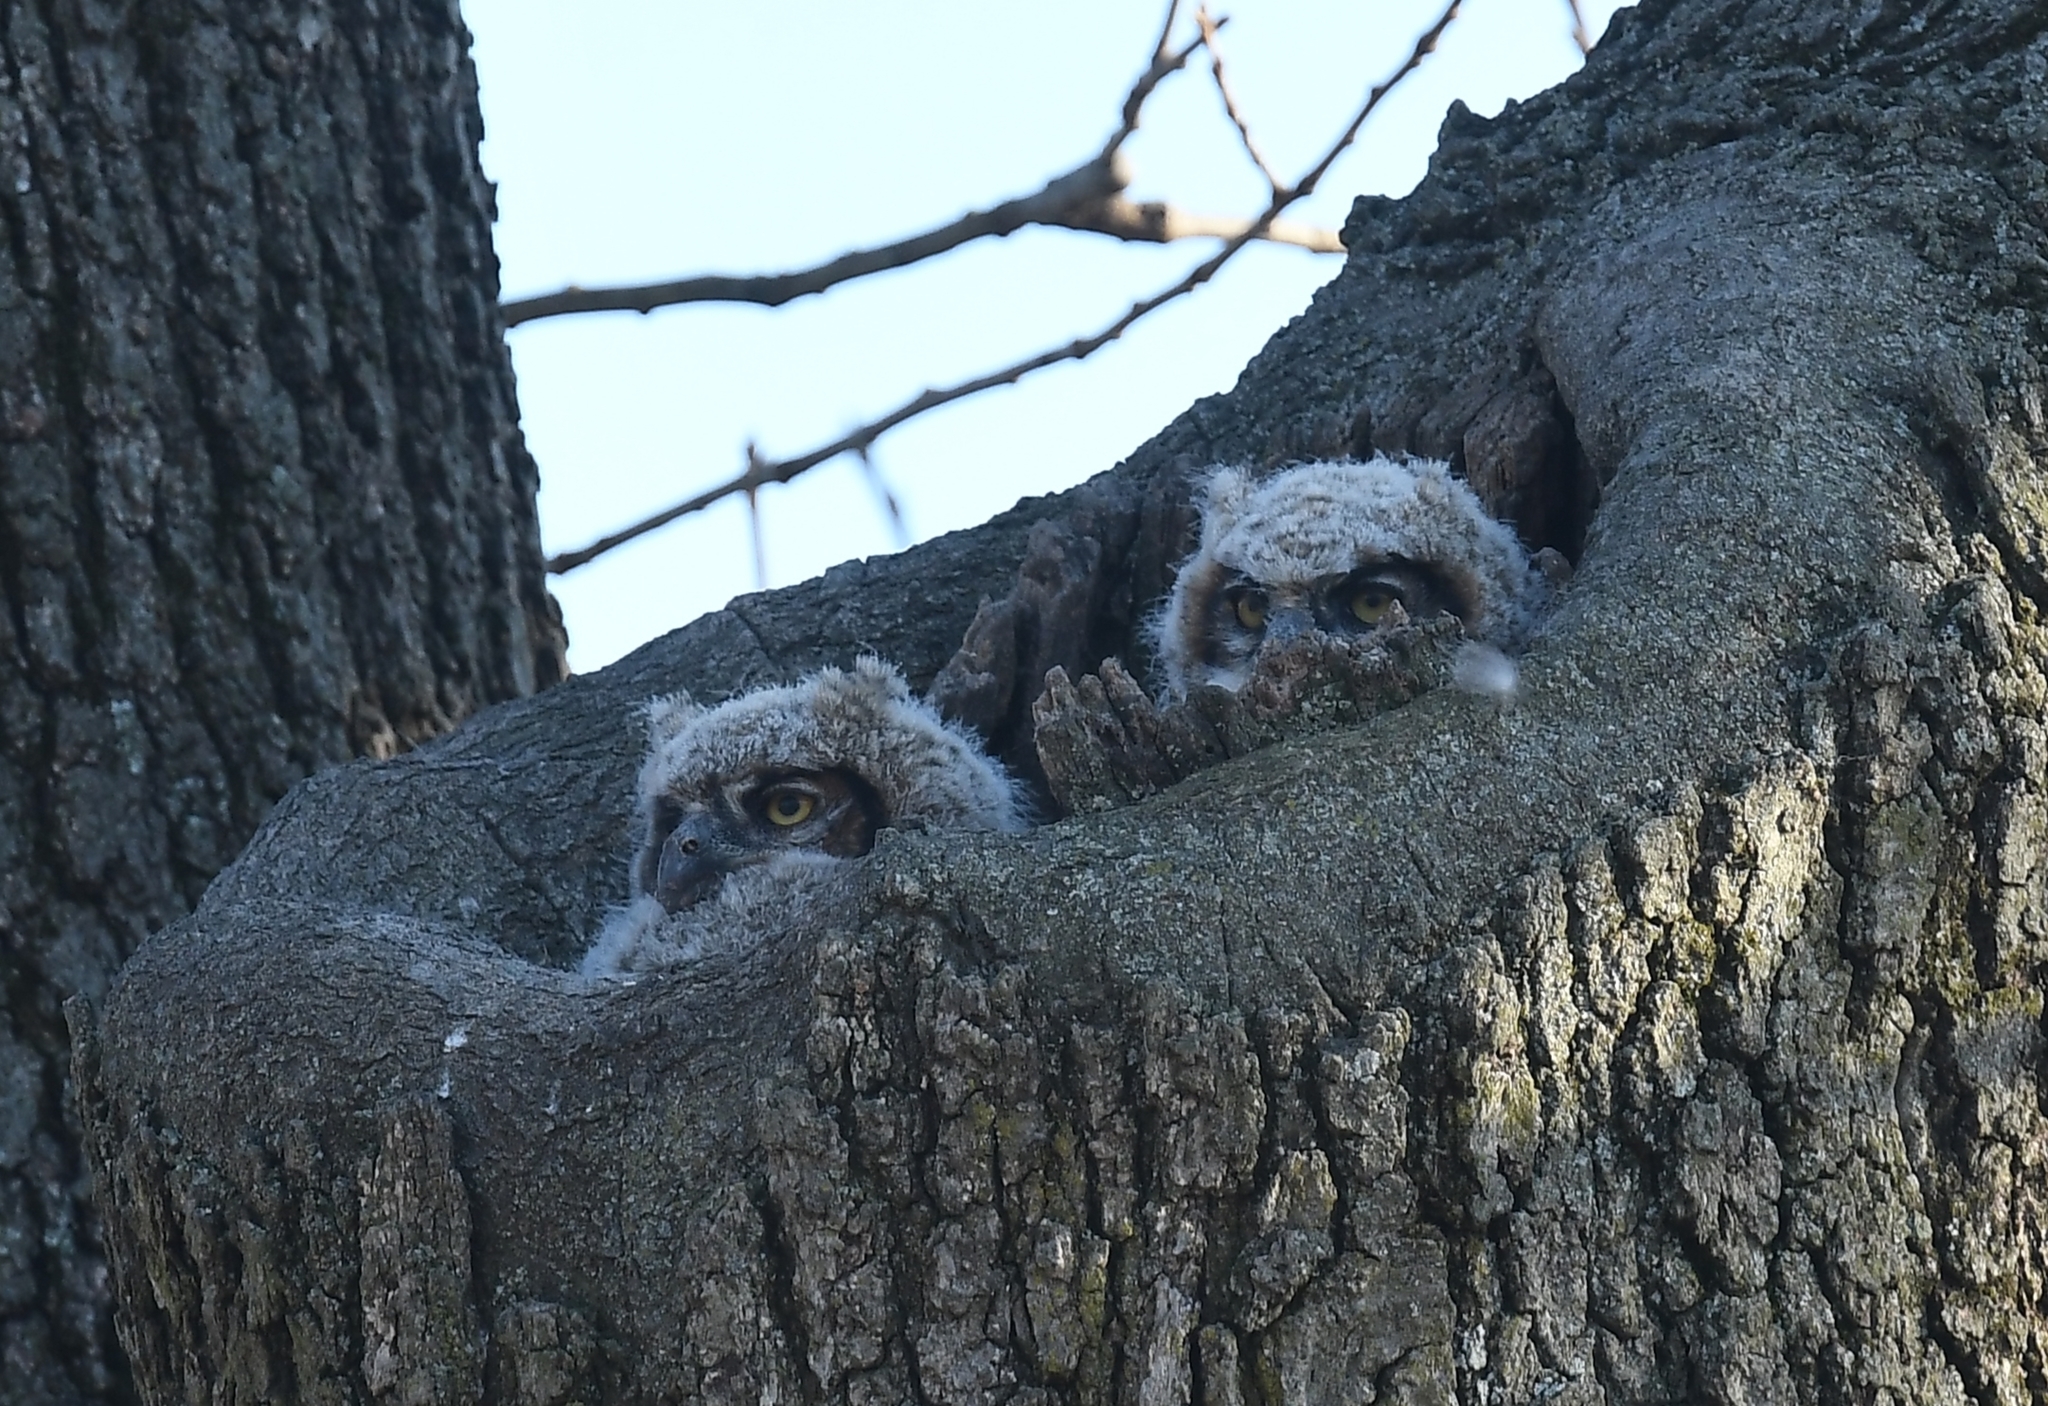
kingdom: Animalia
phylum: Chordata
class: Aves
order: Strigiformes
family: Strigidae
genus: Bubo
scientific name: Bubo virginianus
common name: Great horned owl
